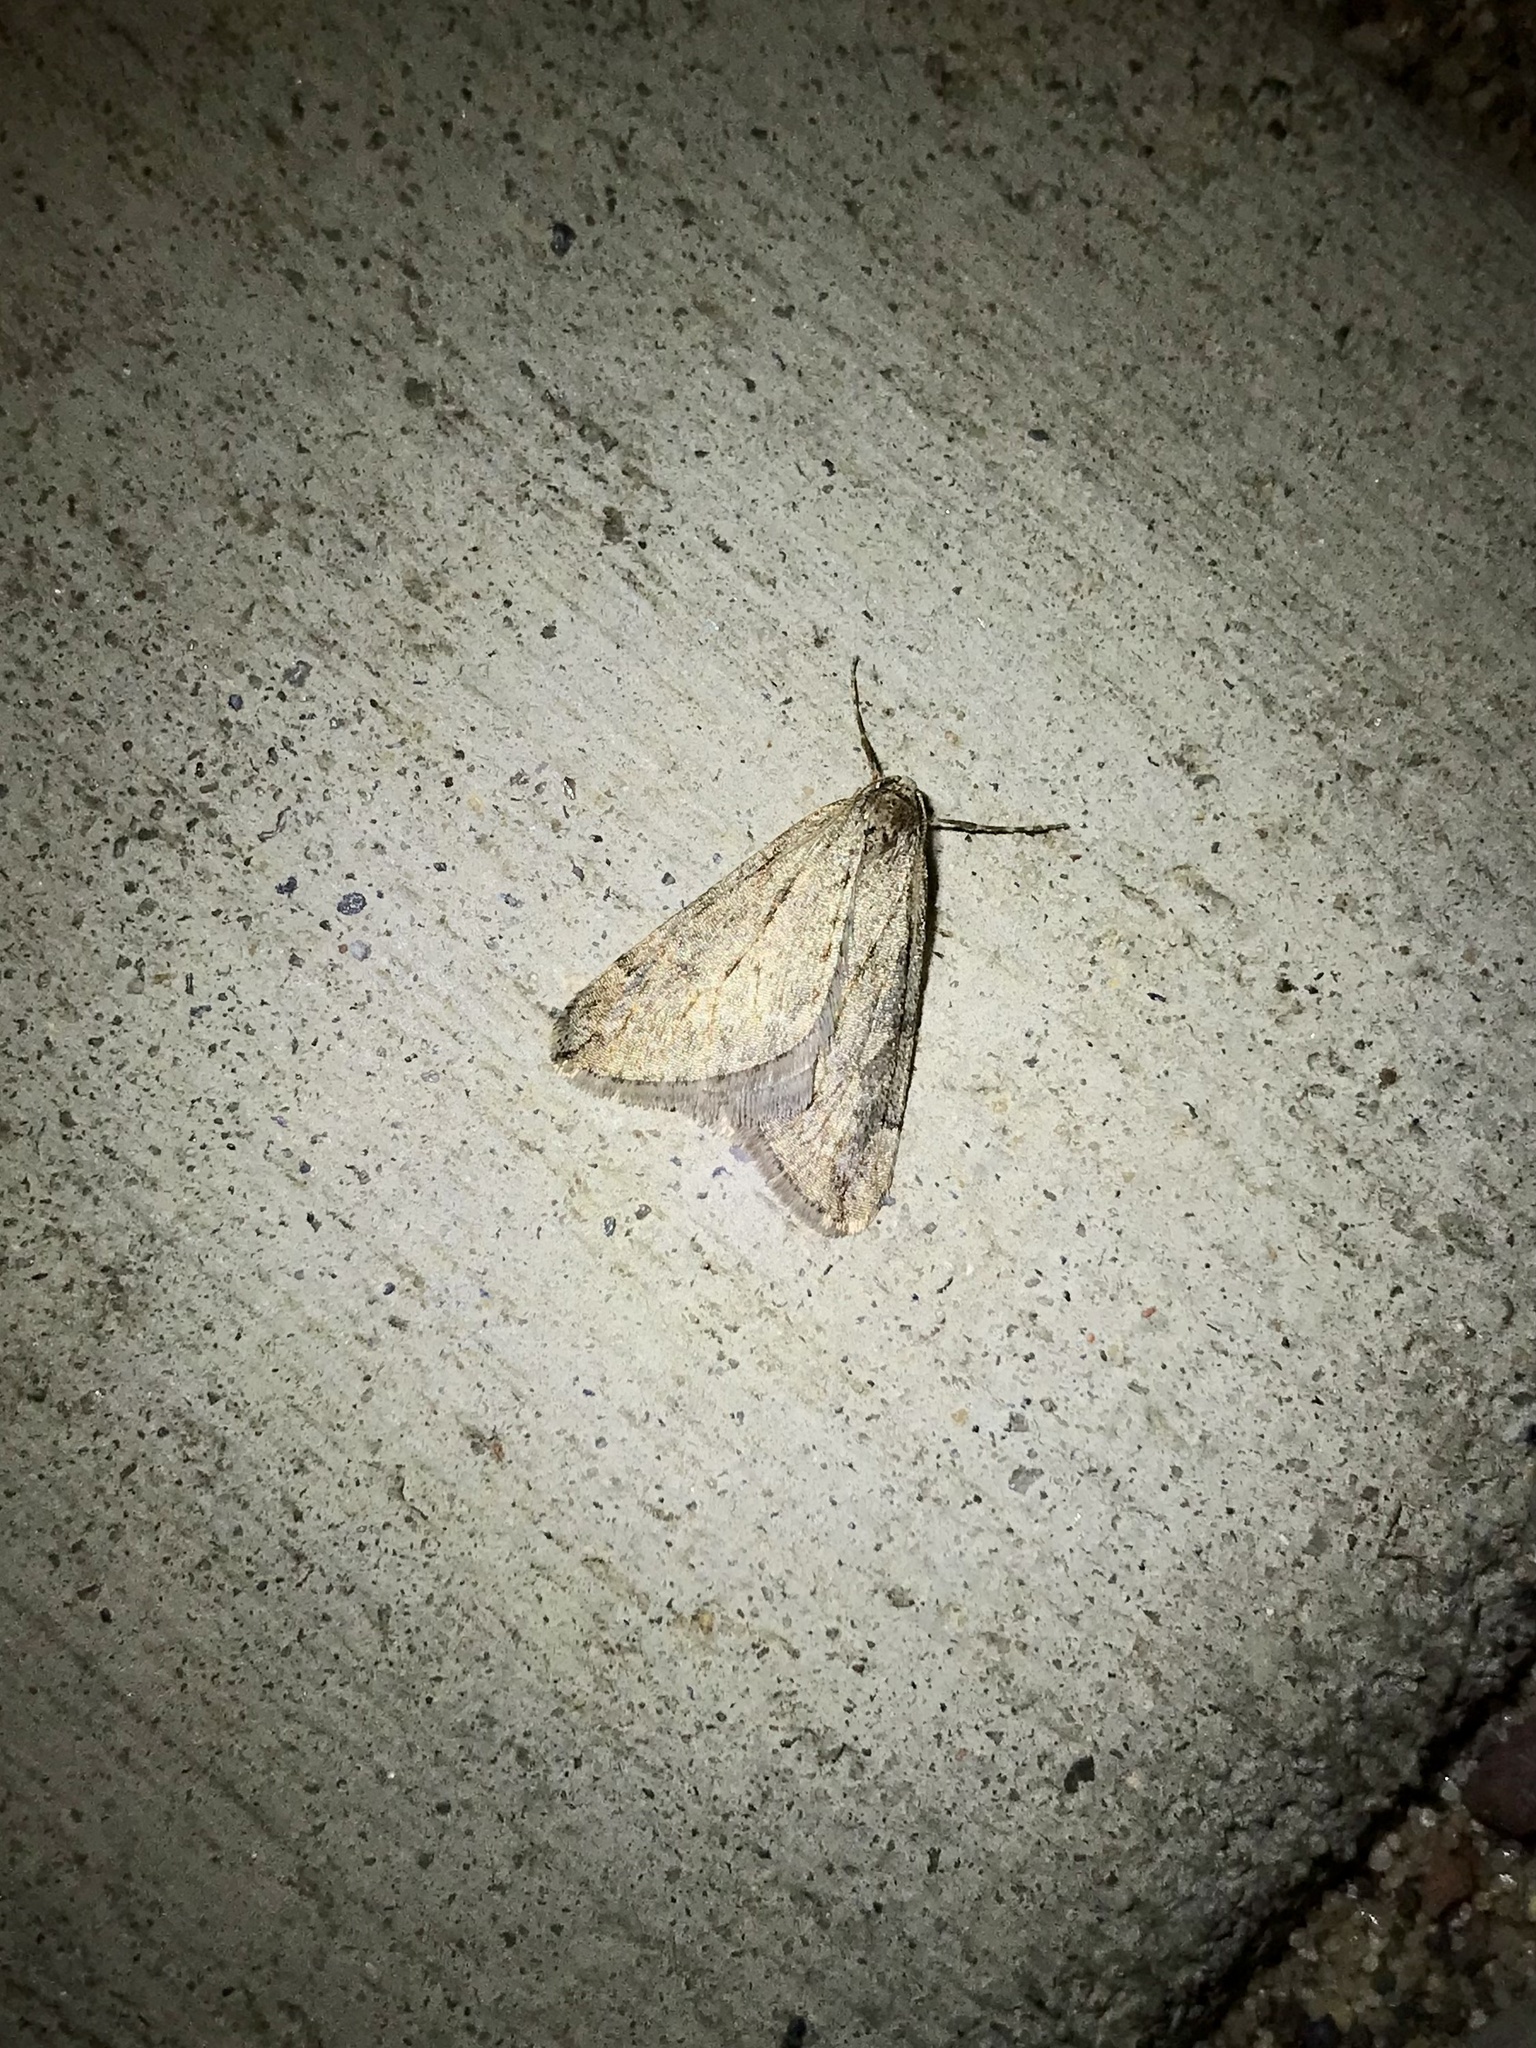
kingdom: Animalia
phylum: Arthropoda
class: Insecta
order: Lepidoptera
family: Geometridae
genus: Paleacrita
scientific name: Paleacrita vernata
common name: Spring cankerworm
